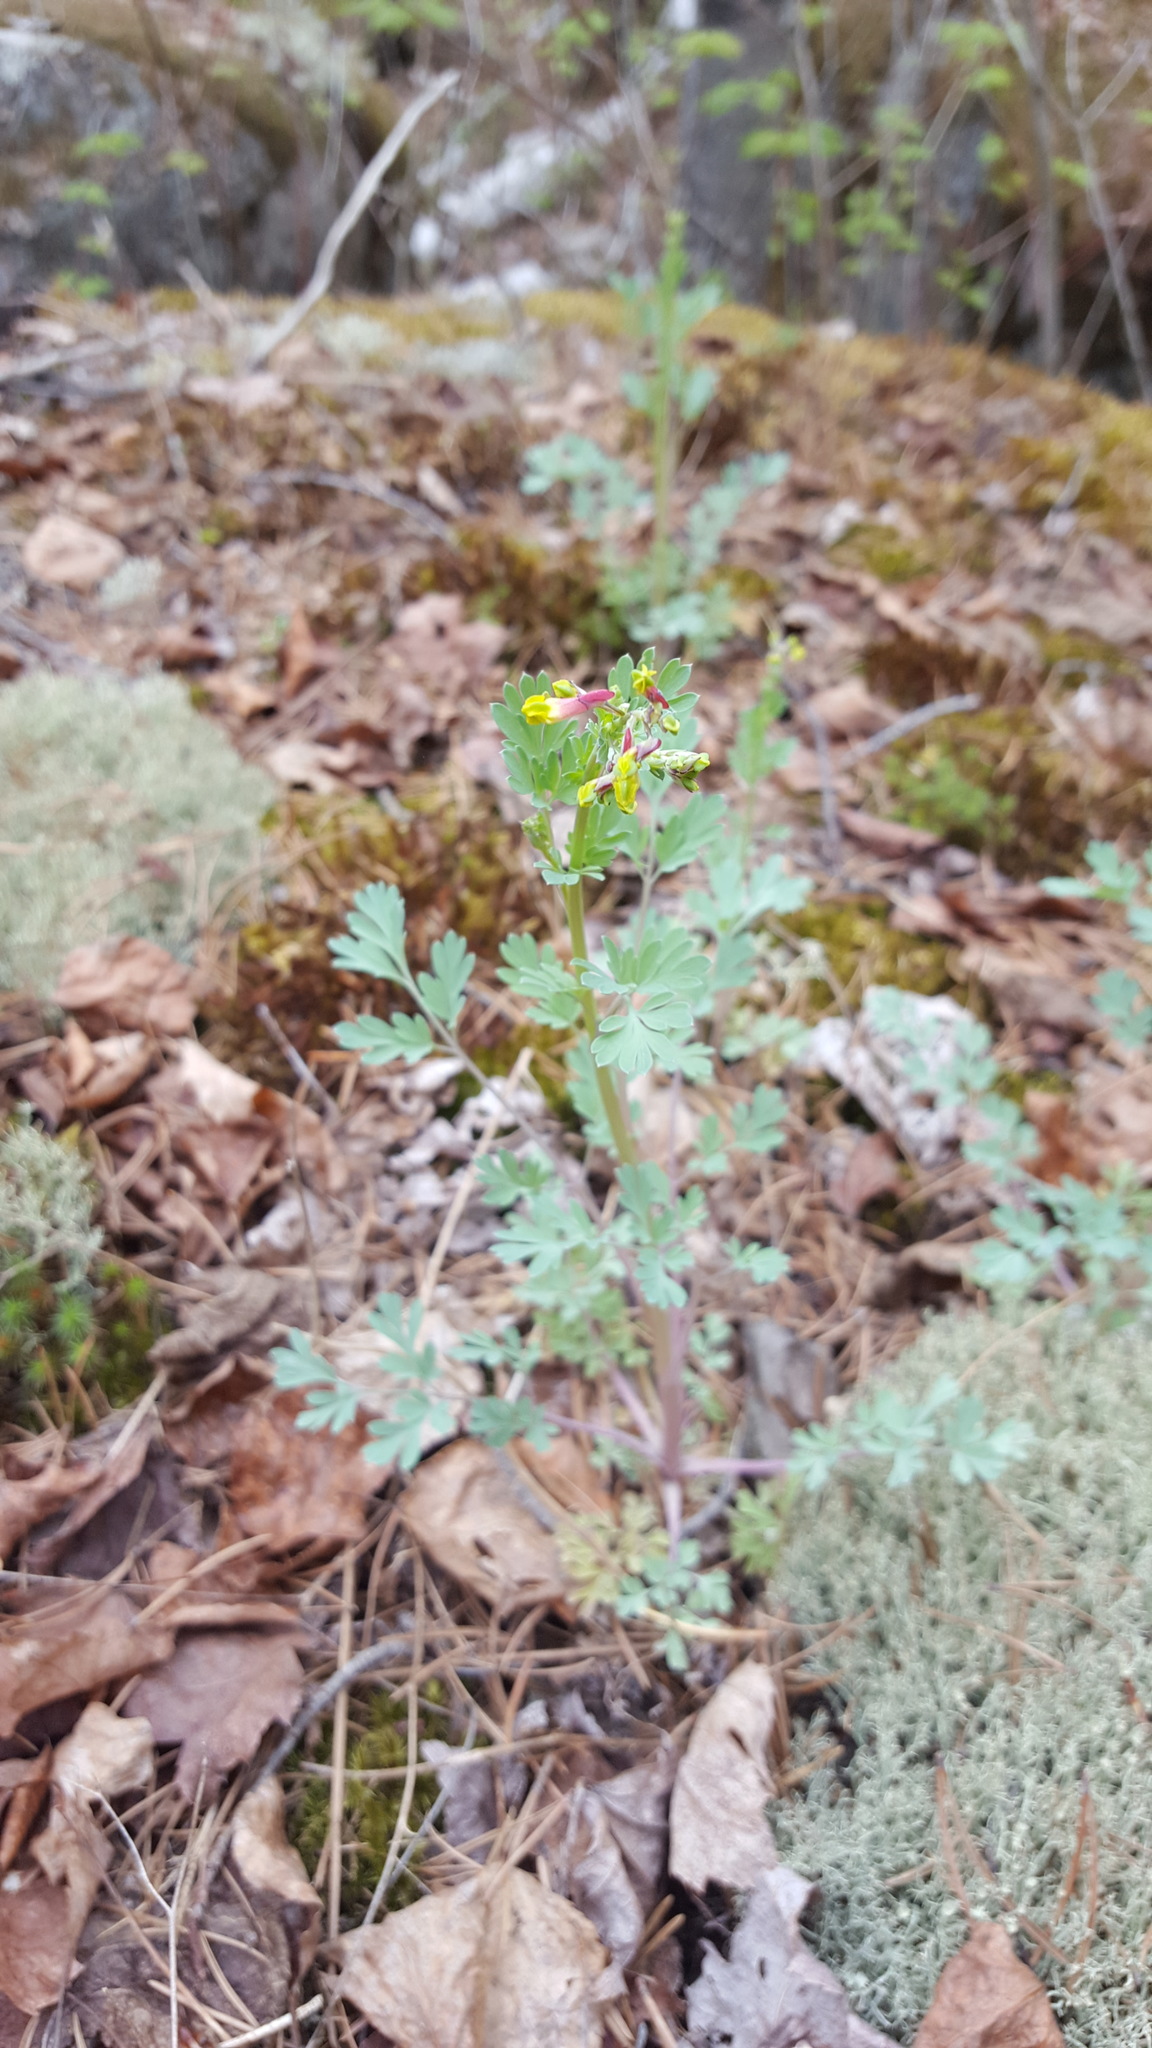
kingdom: Plantae
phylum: Tracheophyta
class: Magnoliopsida
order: Ranunculales
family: Papaveraceae
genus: Capnoides
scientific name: Capnoides sempervirens
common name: Rock harlequin
